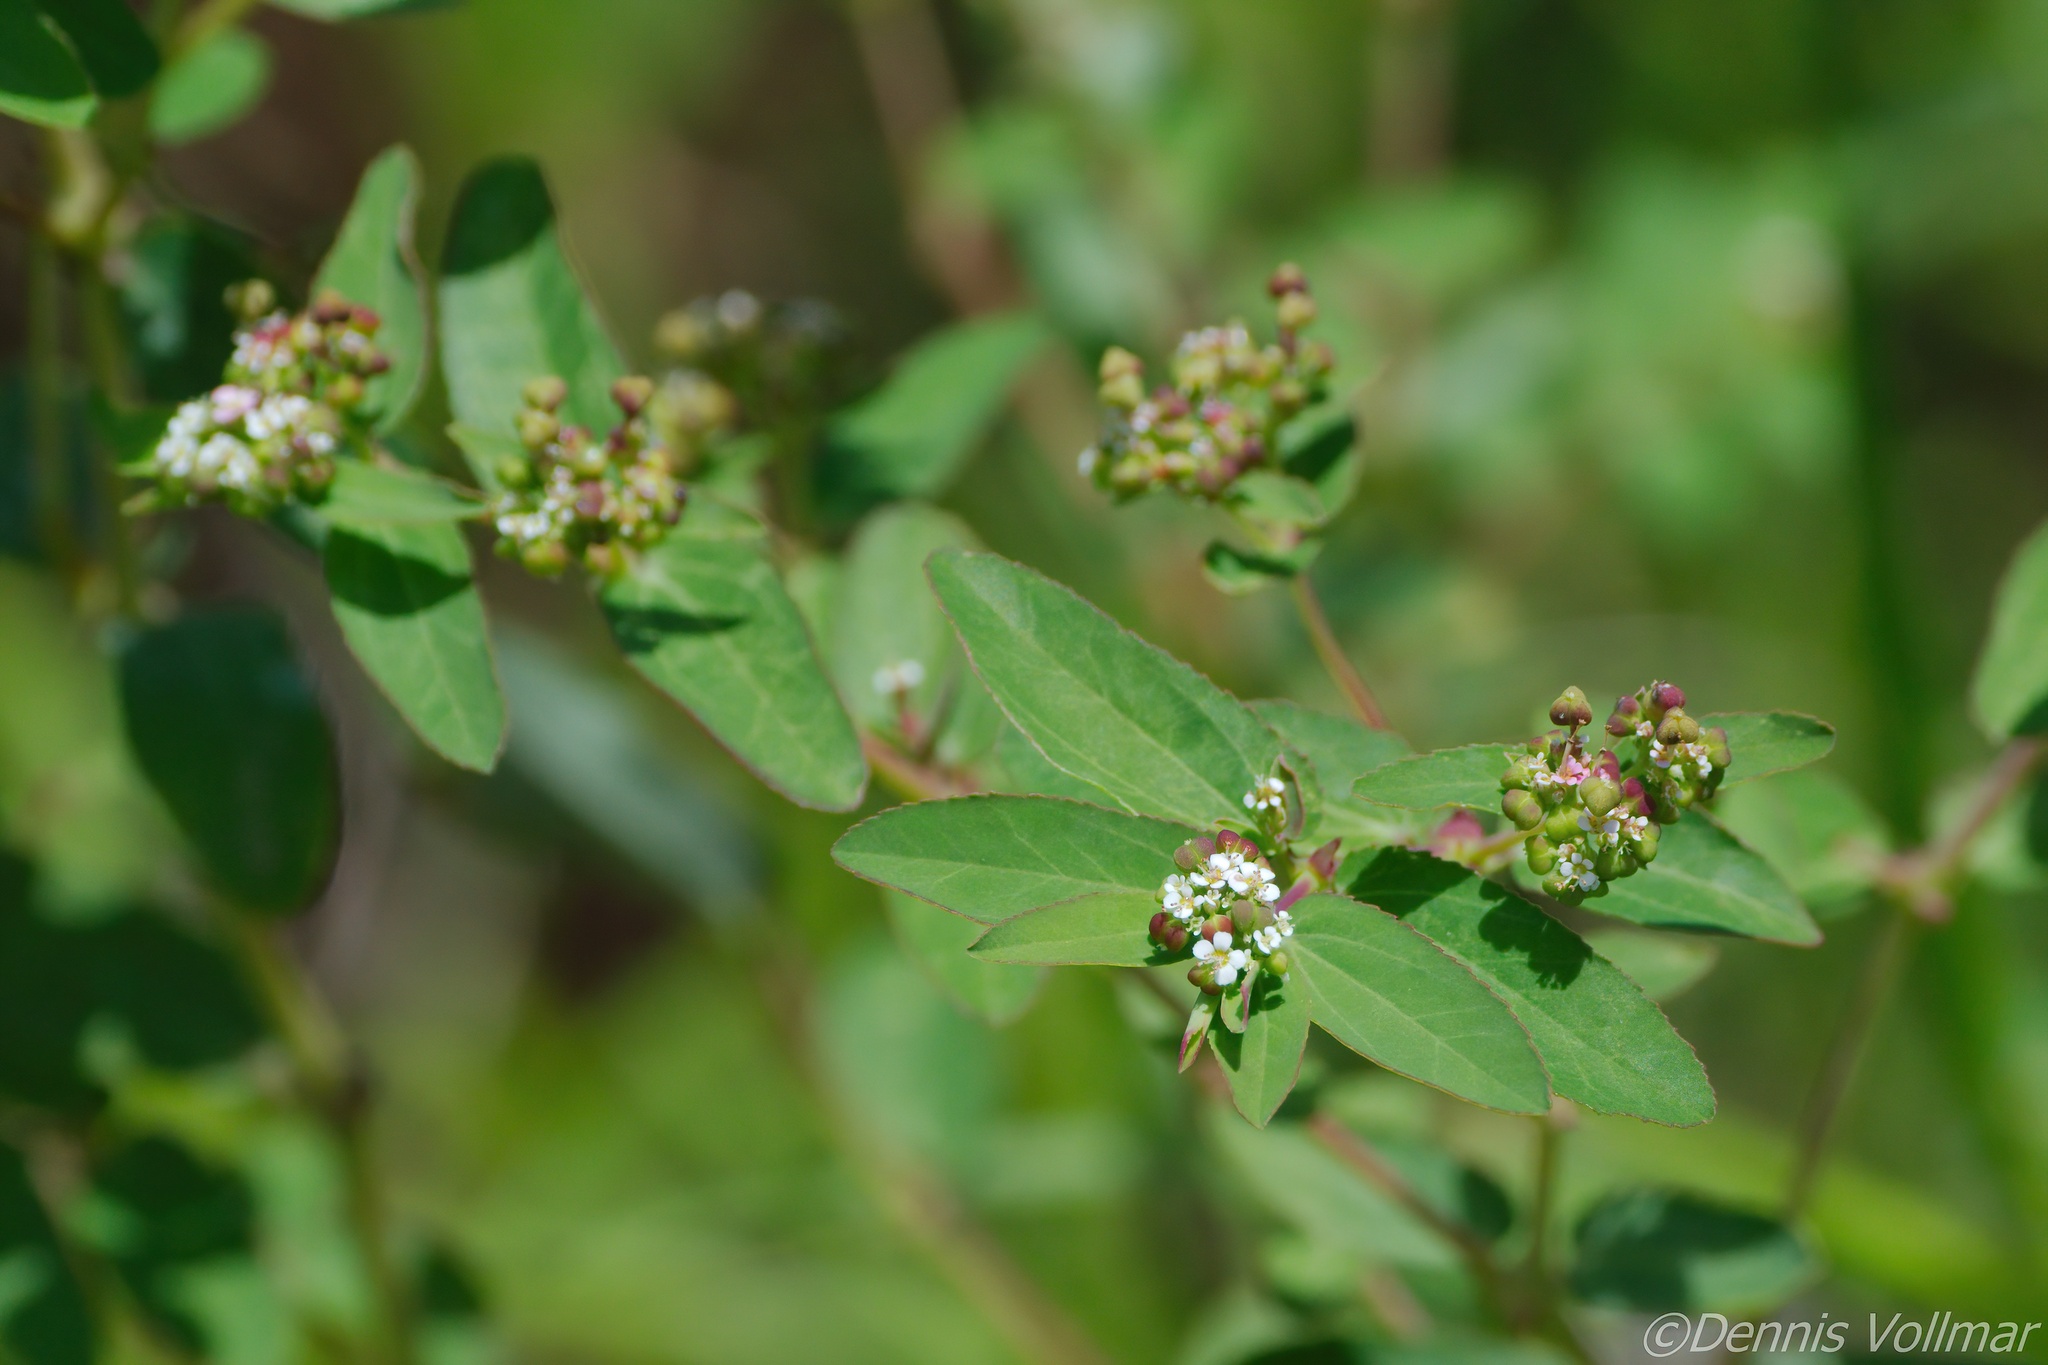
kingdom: Plantae
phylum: Tracheophyta
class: Magnoliopsida
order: Malpighiales
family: Euphorbiaceae
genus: Euphorbia
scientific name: Euphorbia hypericifolia
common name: Graceful sandmat
